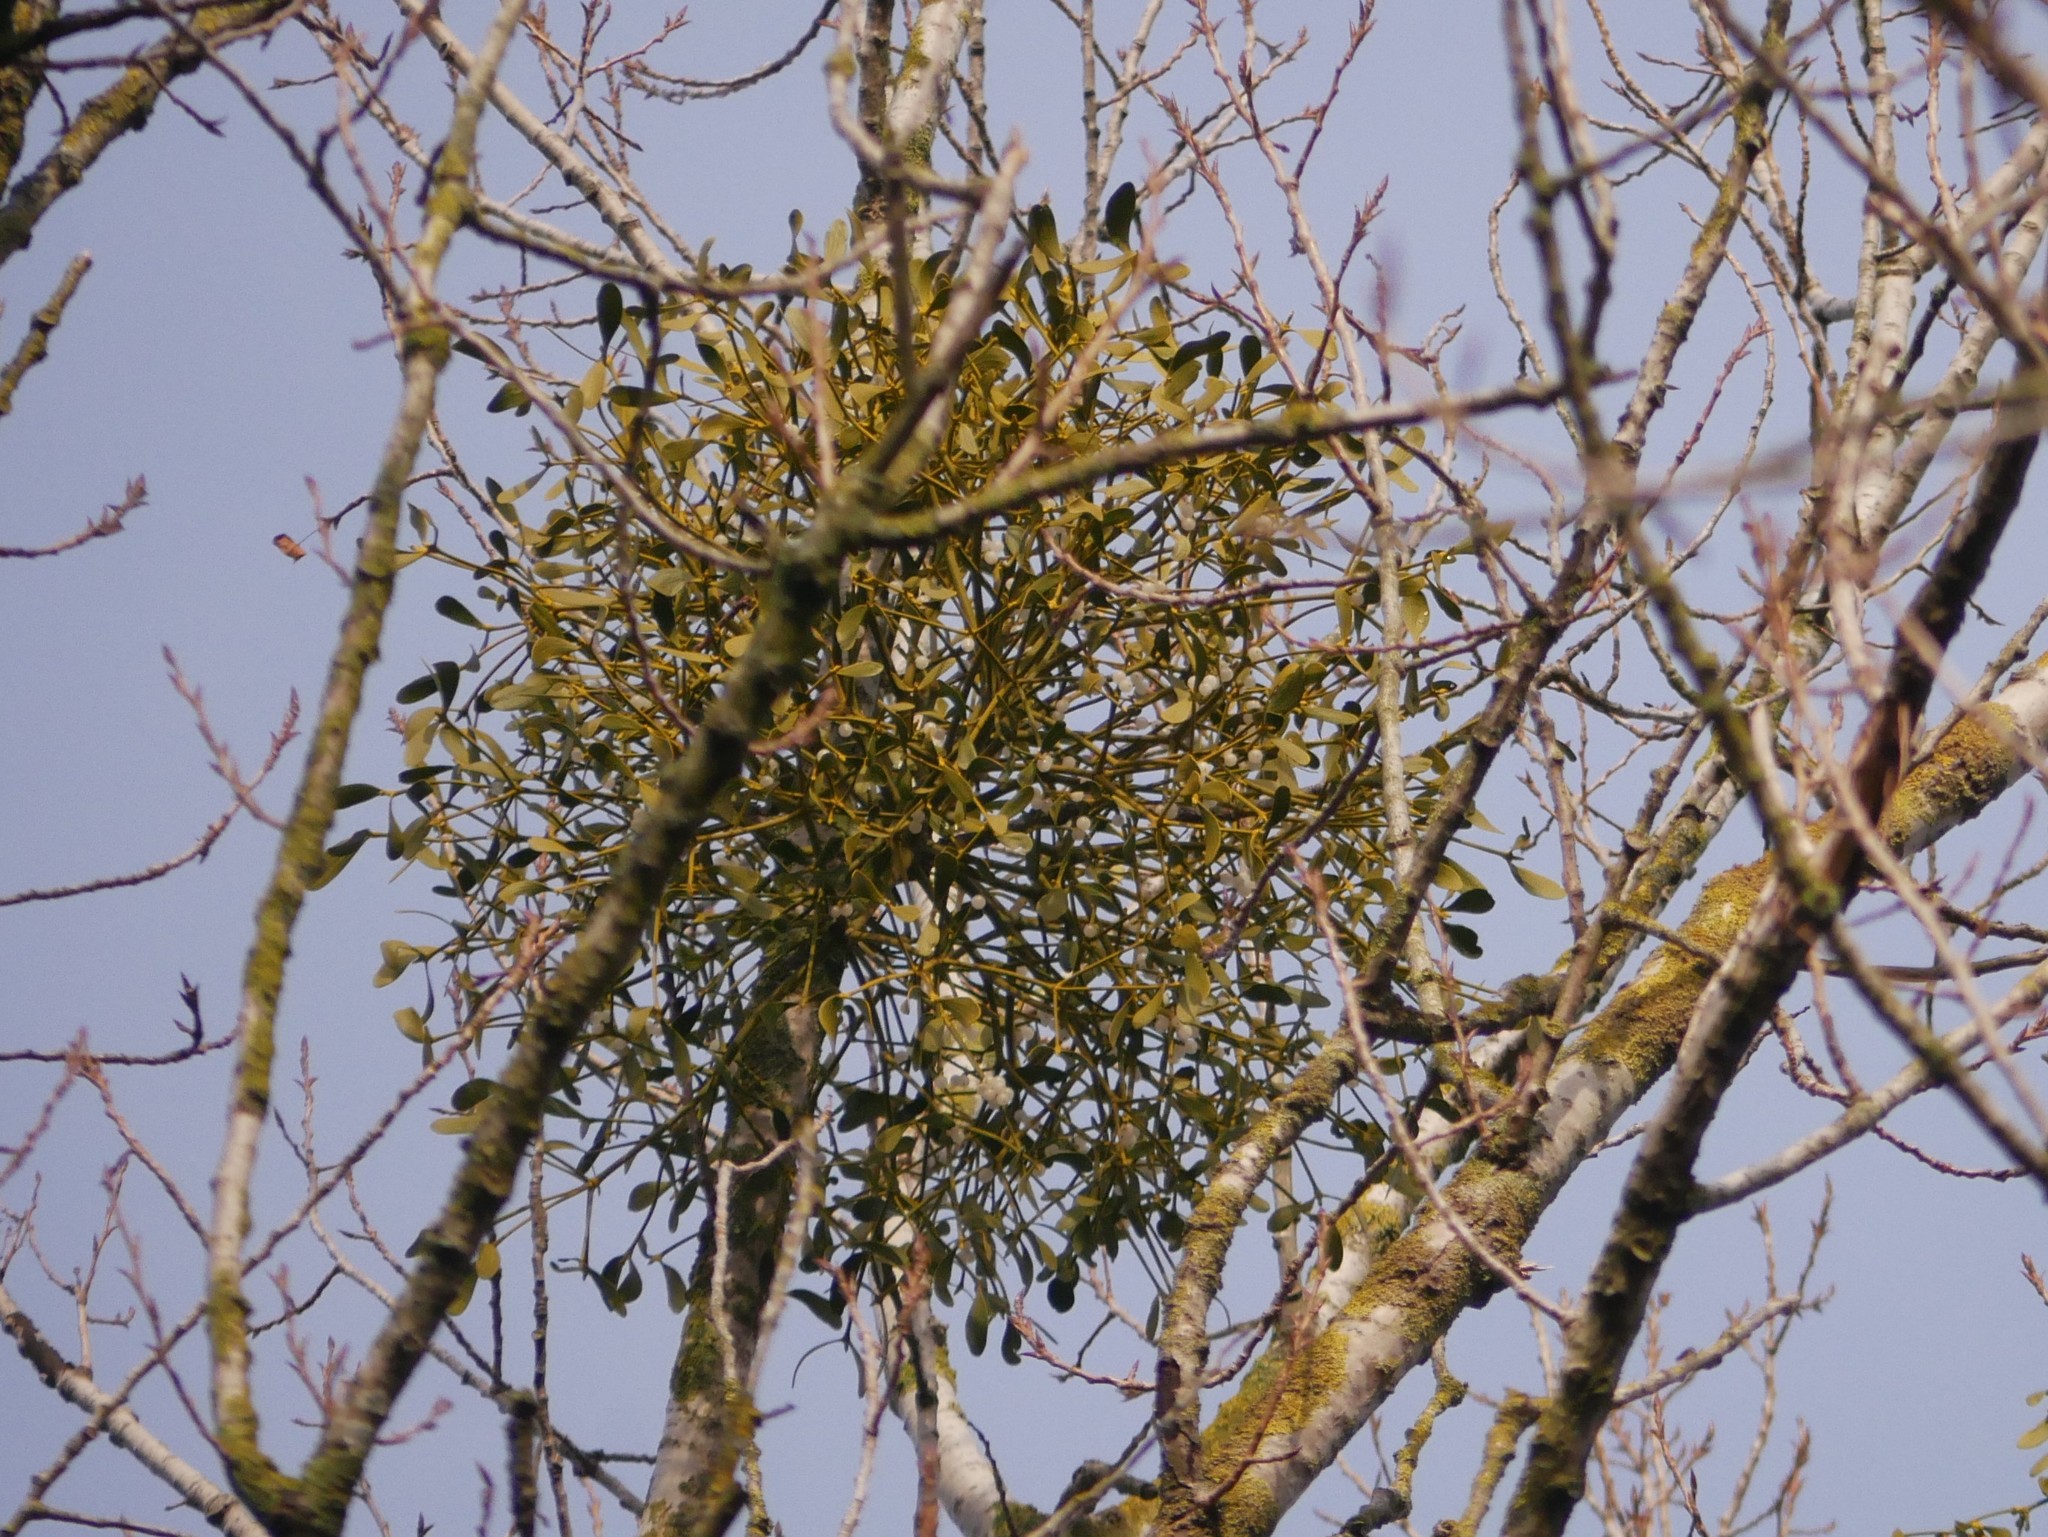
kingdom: Plantae
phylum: Tracheophyta
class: Magnoliopsida
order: Santalales
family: Viscaceae
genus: Viscum
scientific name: Viscum album
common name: Mistletoe
